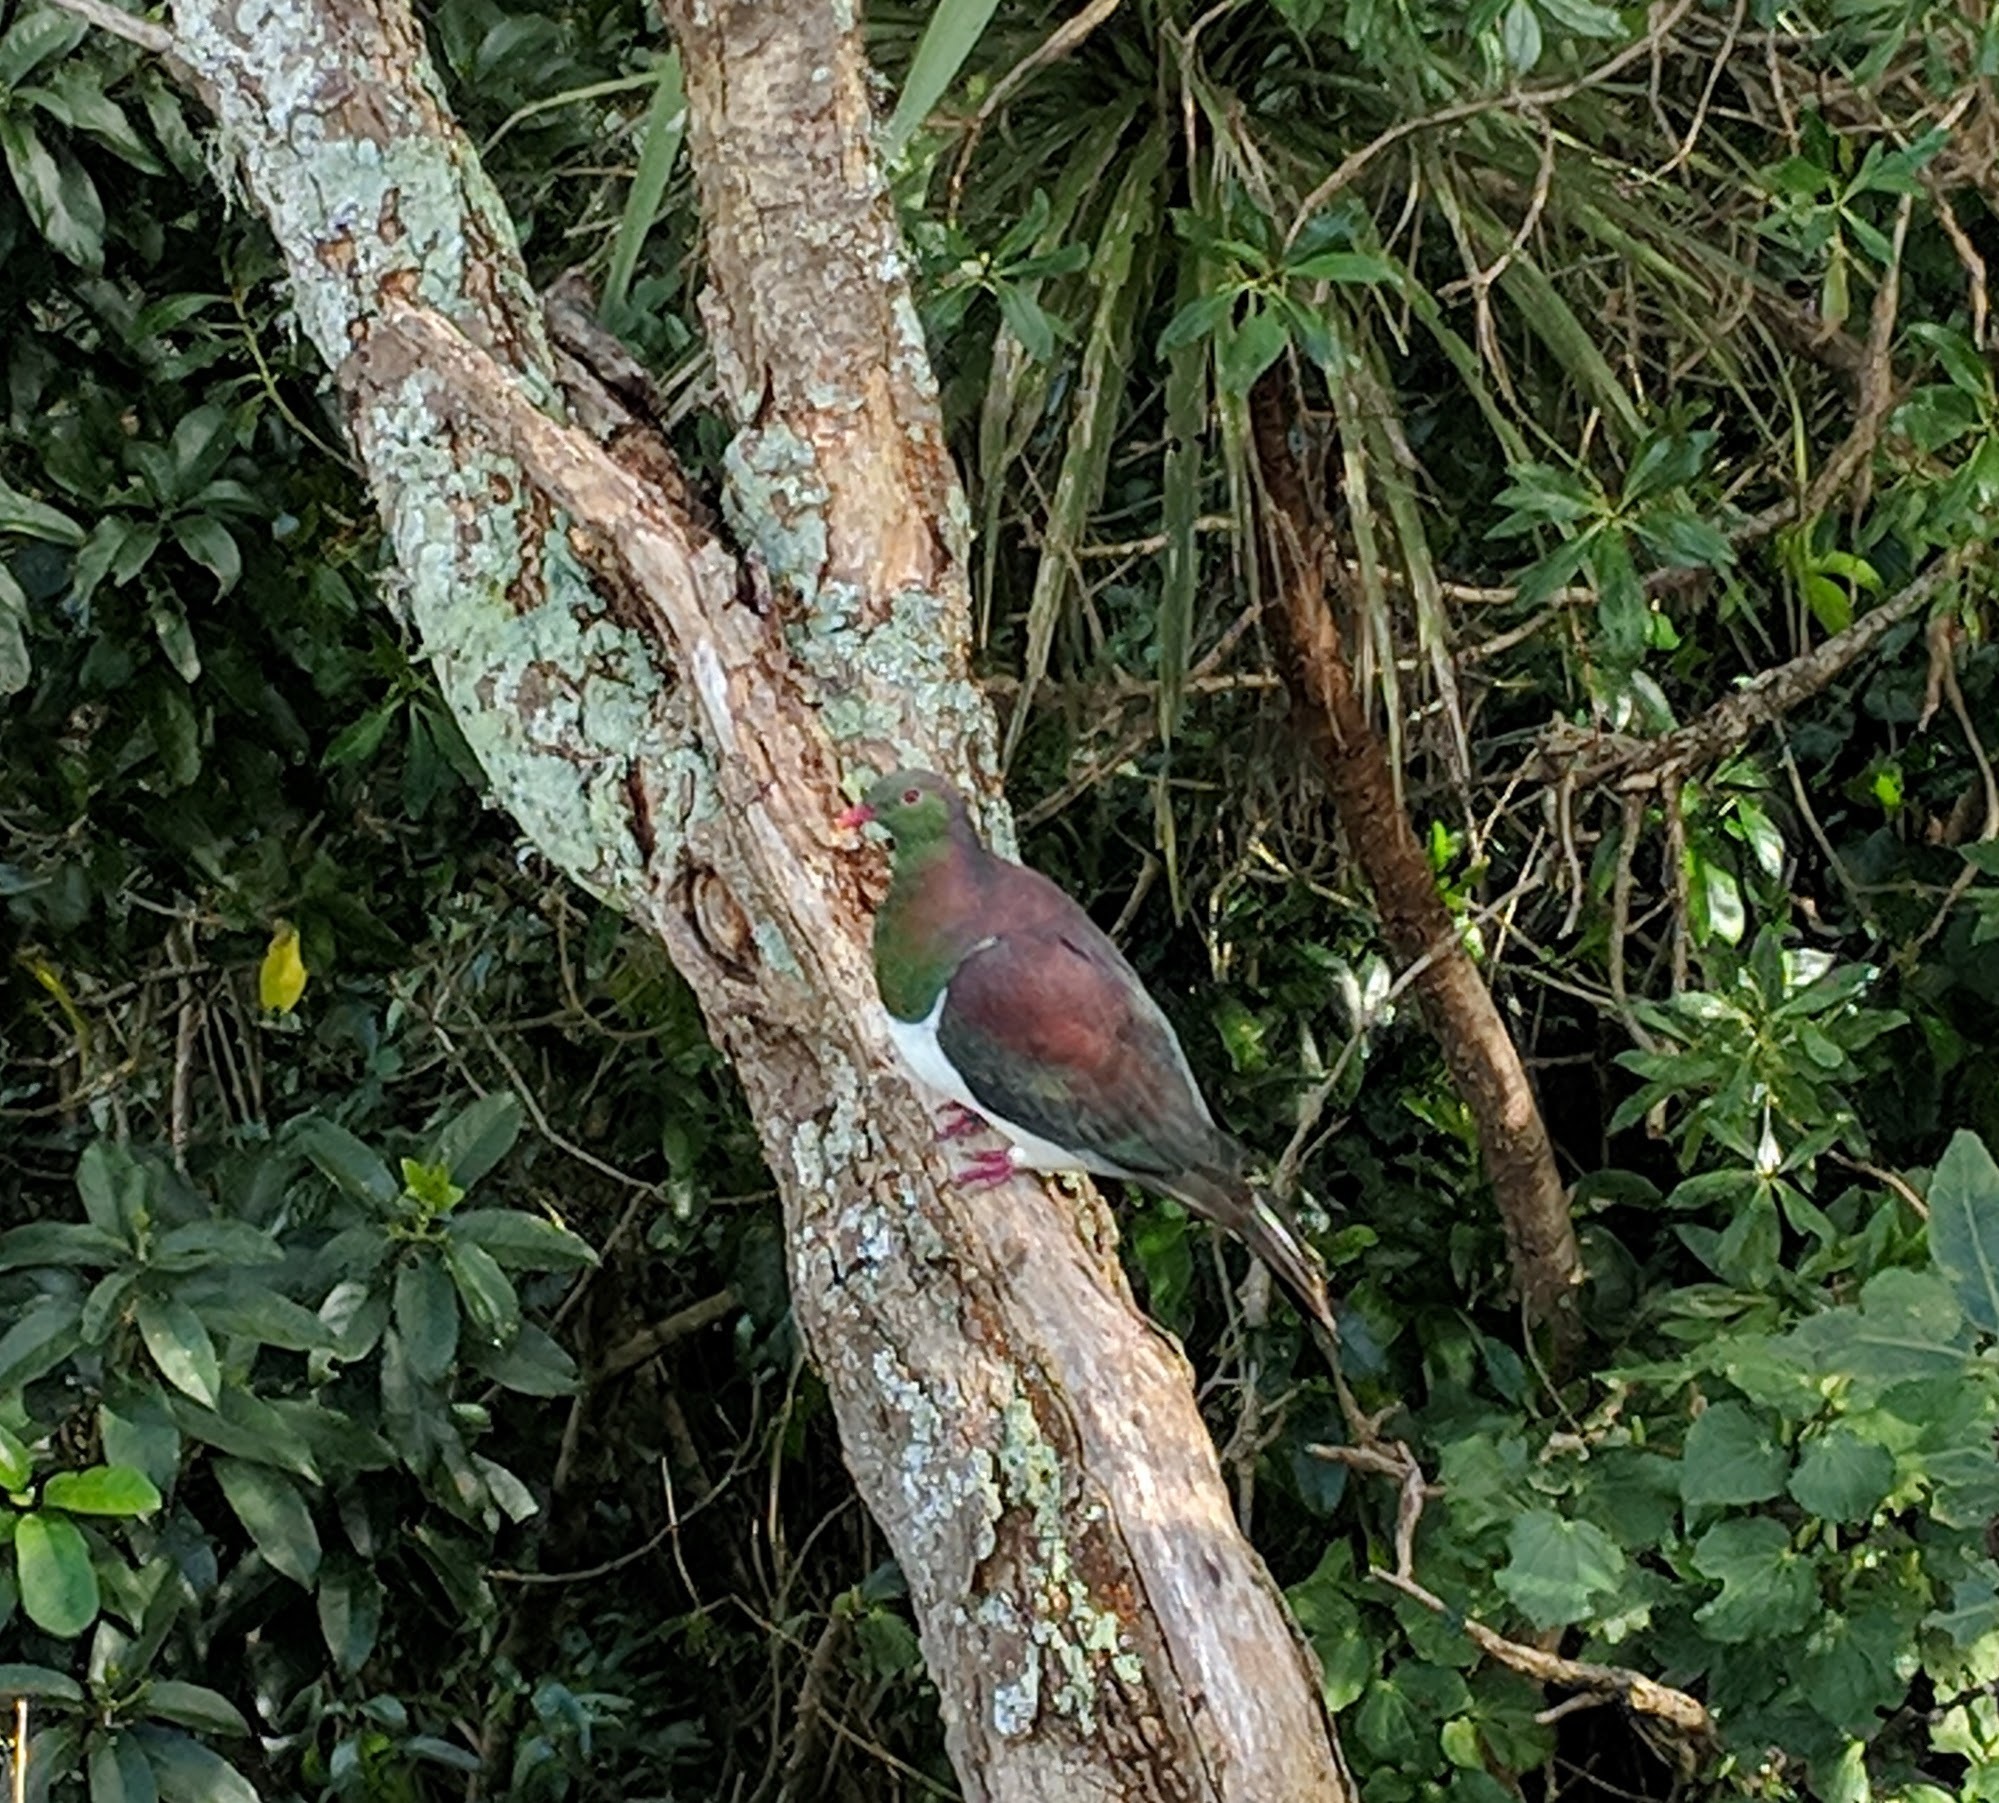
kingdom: Animalia
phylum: Chordata
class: Aves
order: Columbiformes
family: Columbidae
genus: Hemiphaga
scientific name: Hemiphaga novaeseelandiae
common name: New zealand pigeon
